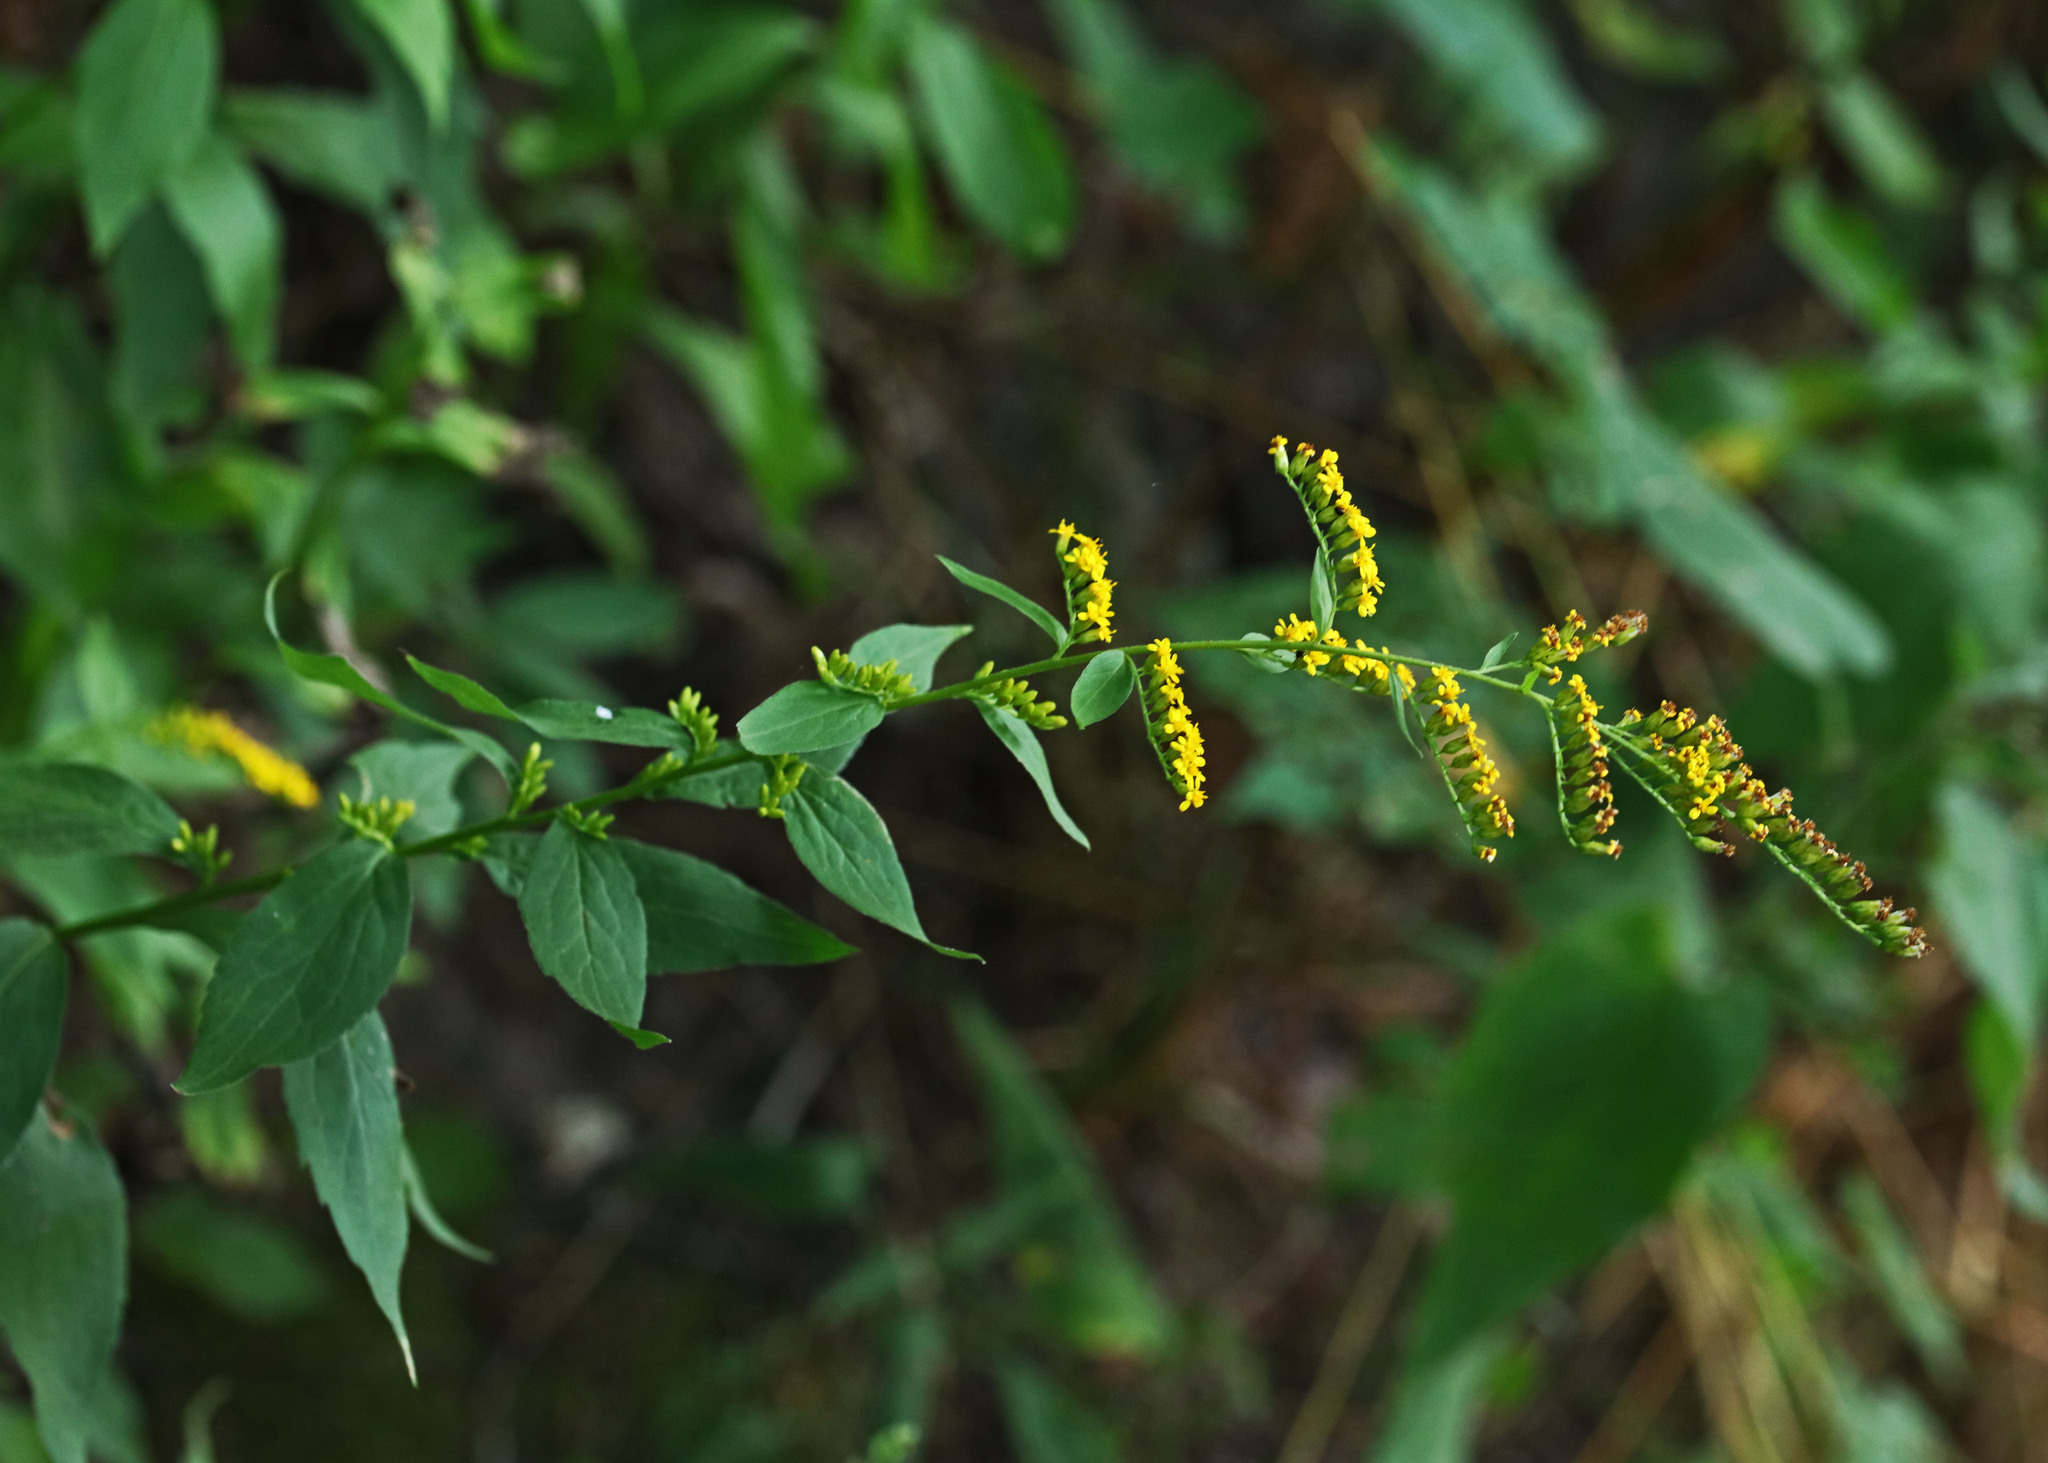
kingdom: Plantae
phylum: Tracheophyta
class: Magnoliopsida
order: Asterales
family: Asteraceae
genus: Solidago
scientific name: Solidago ulmifolia
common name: Elm-leaf goldenrod
